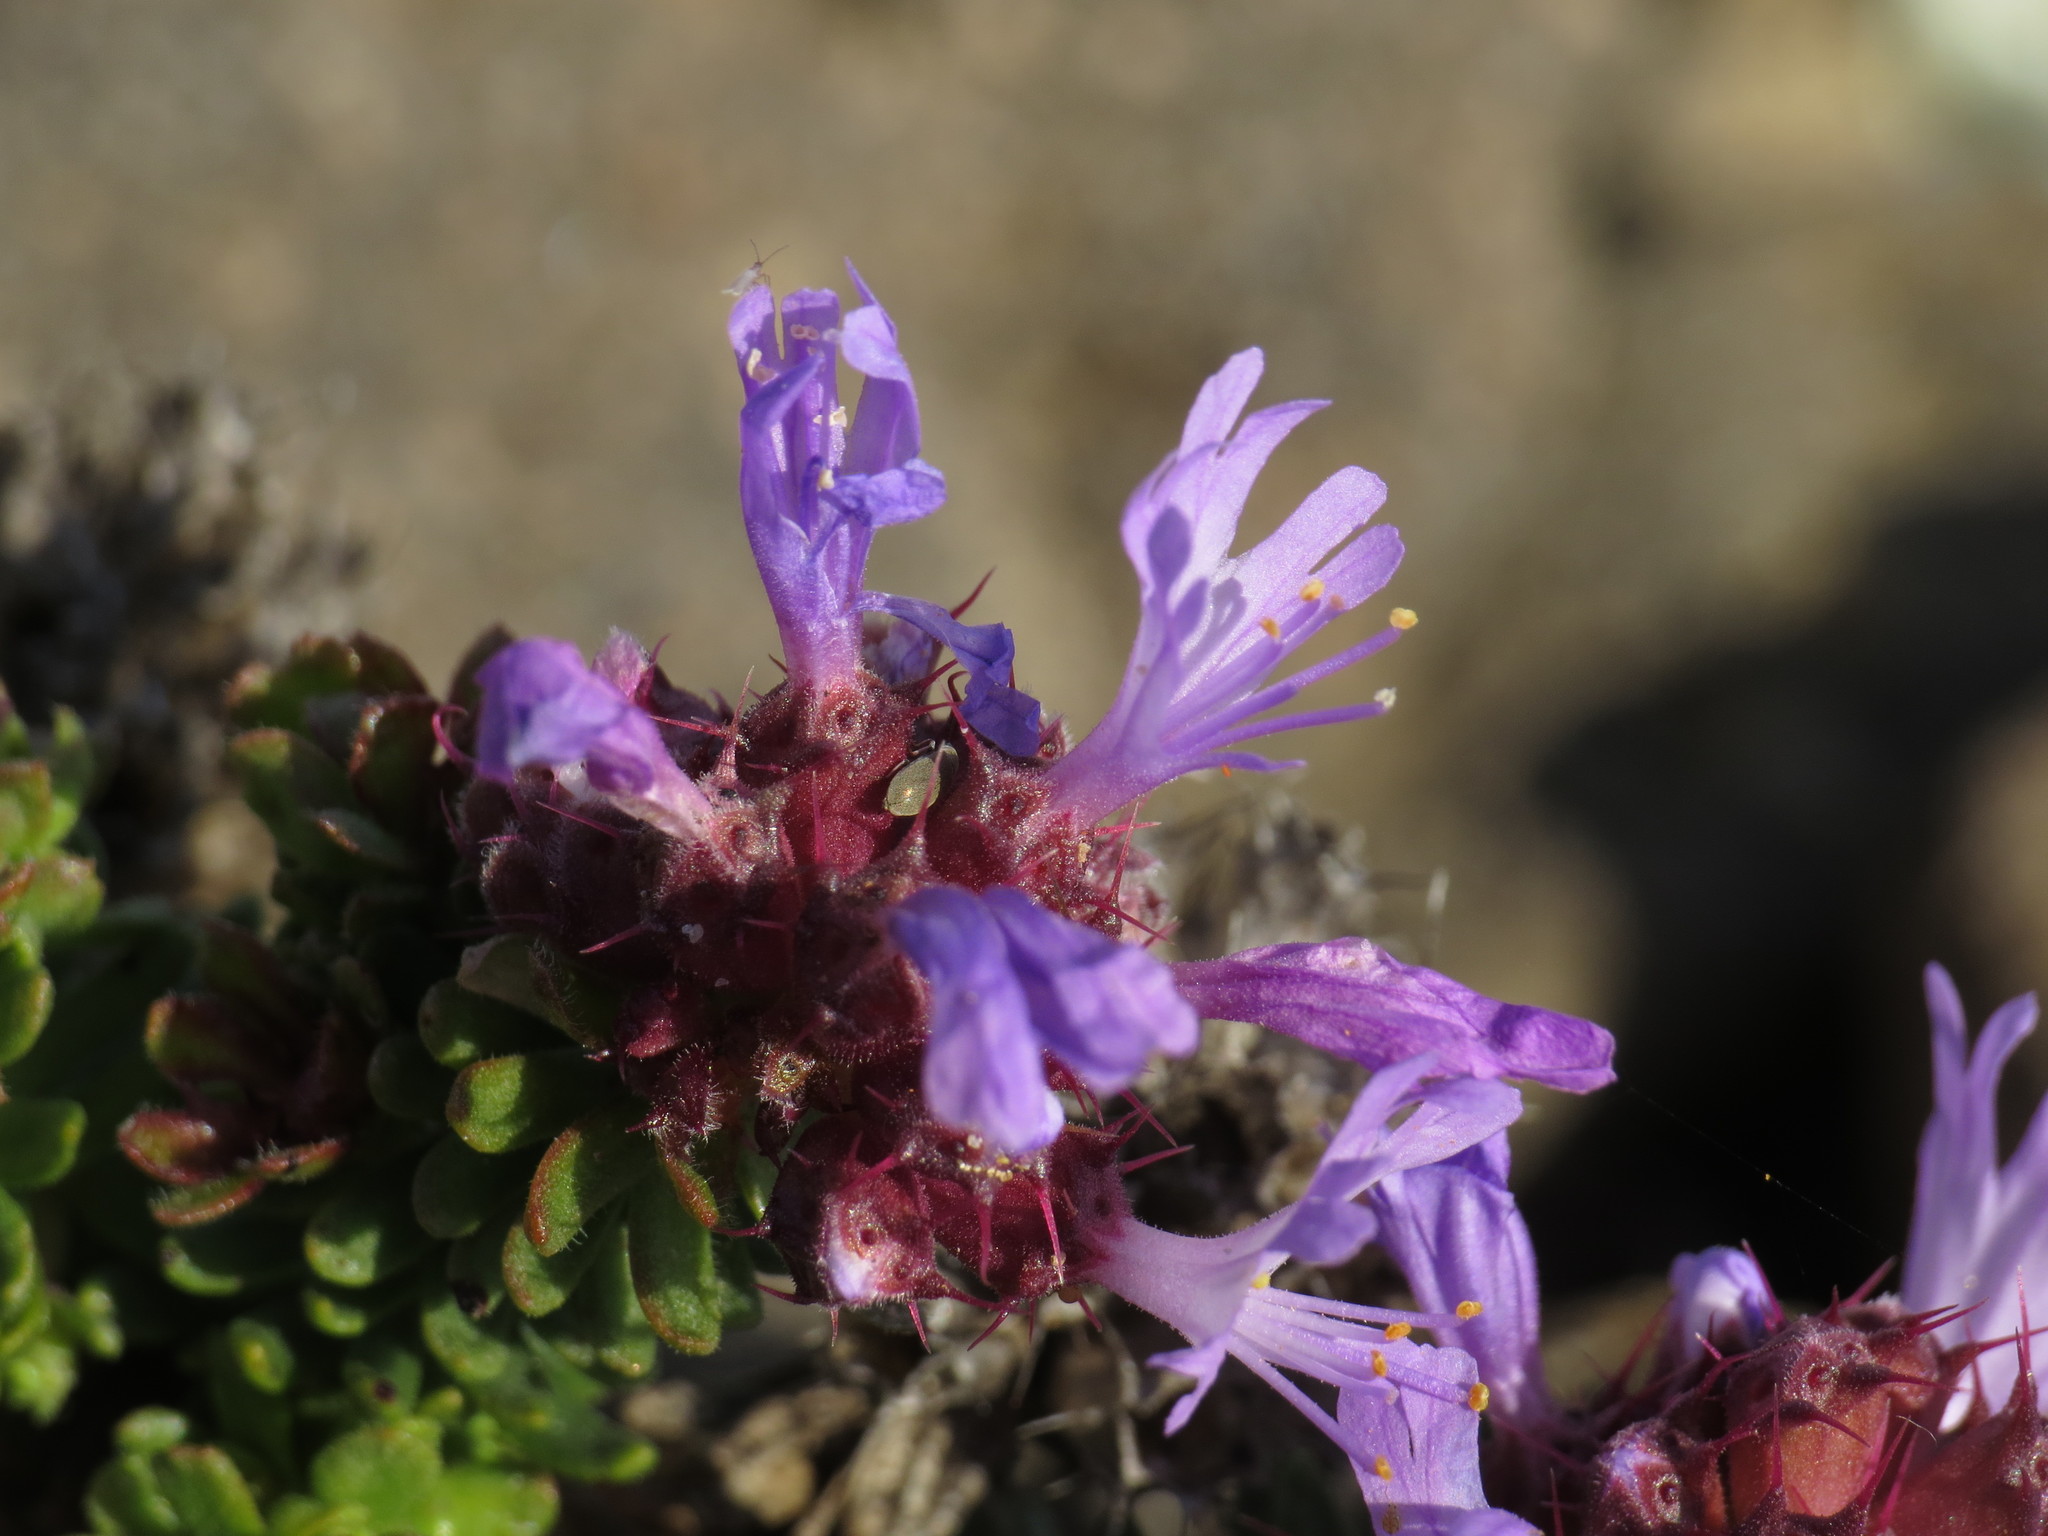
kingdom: Plantae
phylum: Tracheophyta
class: Magnoliopsida
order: Ericales
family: Primulaceae
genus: Coris
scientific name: Coris monspeliensis
